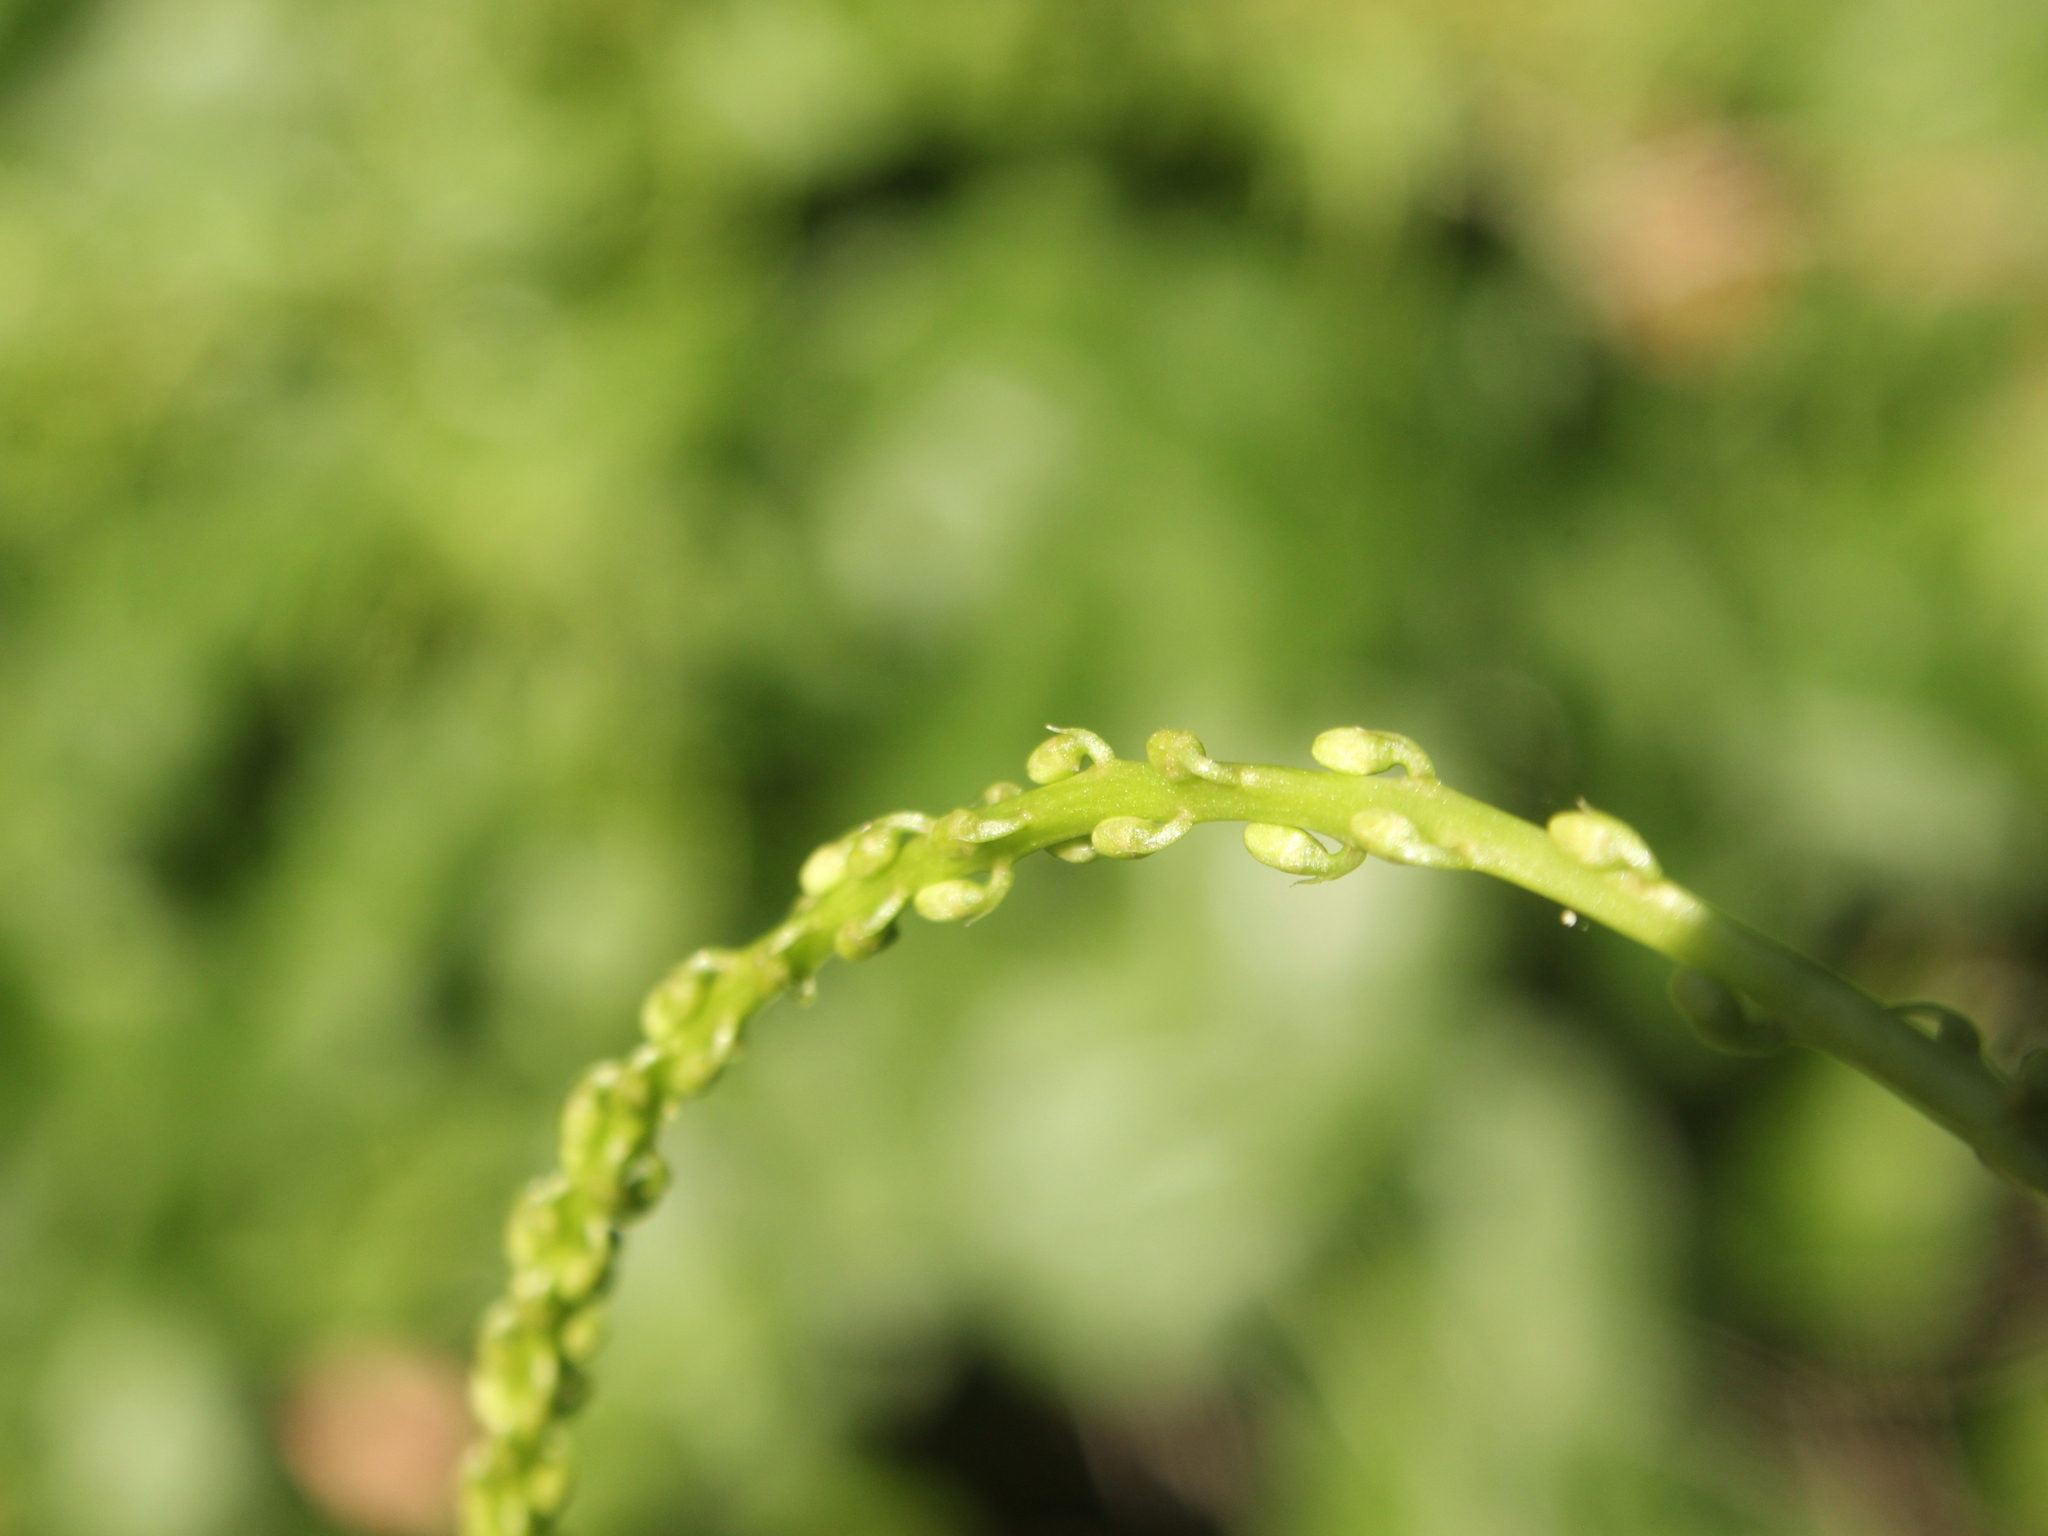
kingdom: Plantae
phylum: Tracheophyta
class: Magnoliopsida
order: Caryophyllales
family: Basellaceae
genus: Anredera
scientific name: Anredera cordifolia
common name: Heartleaf madeiravine
